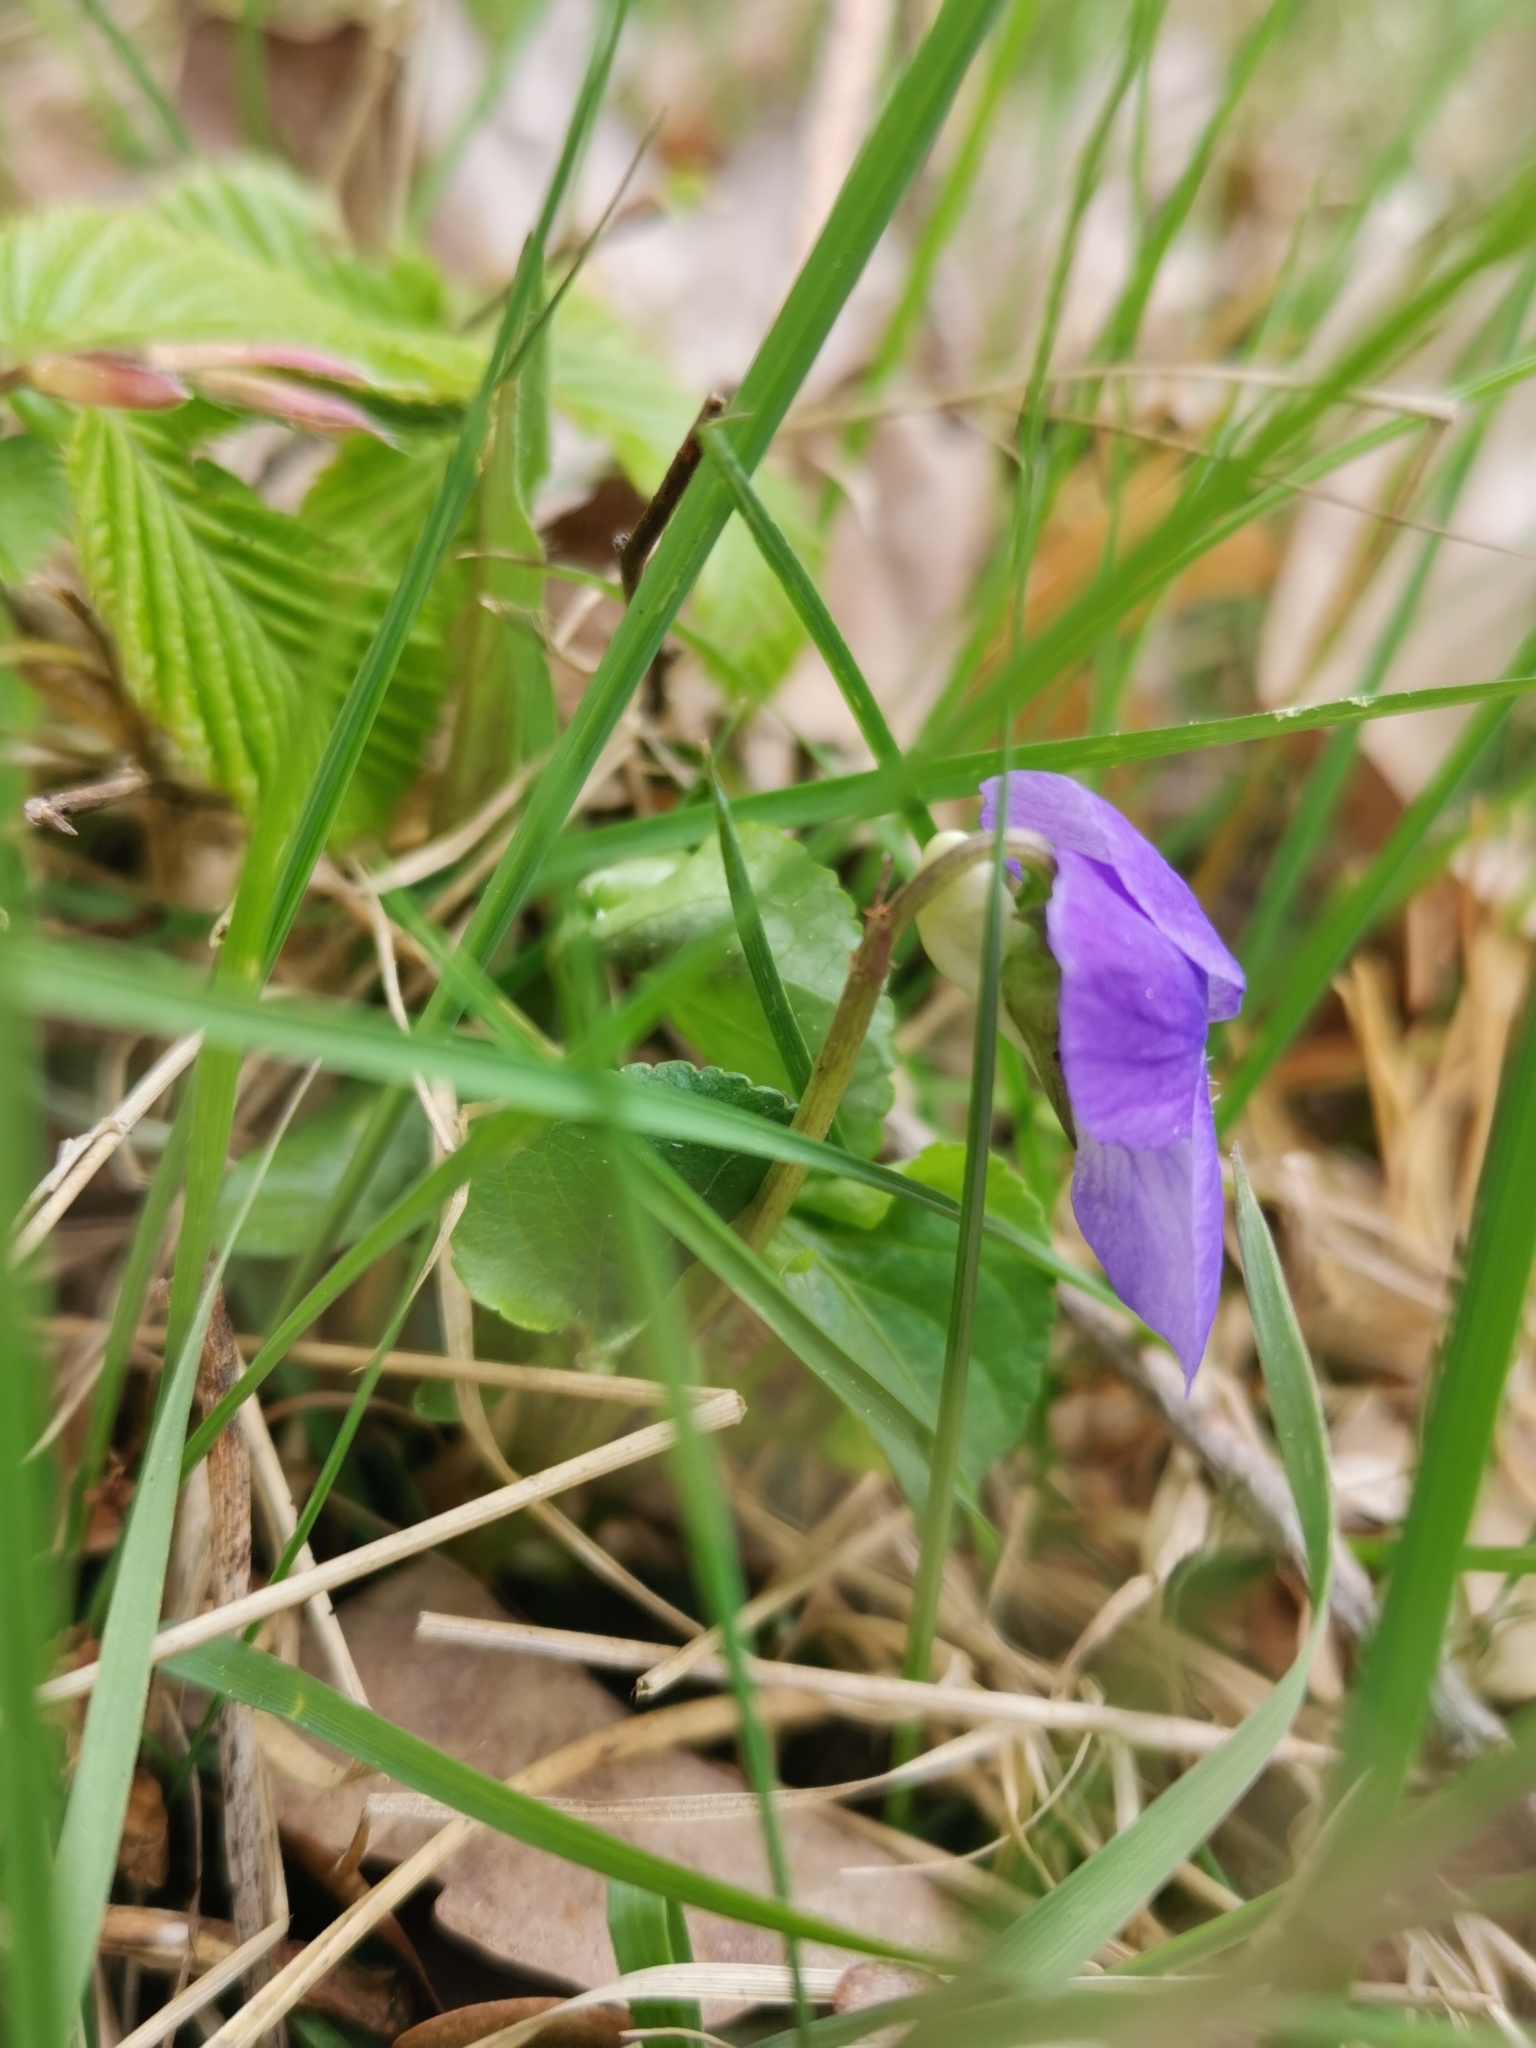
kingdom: Plantae
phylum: Tracheophyta
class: Magnoliopsida
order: Malpighiales
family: Violaceae
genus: Viola
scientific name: Viola riviniana
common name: Common dog-violet
